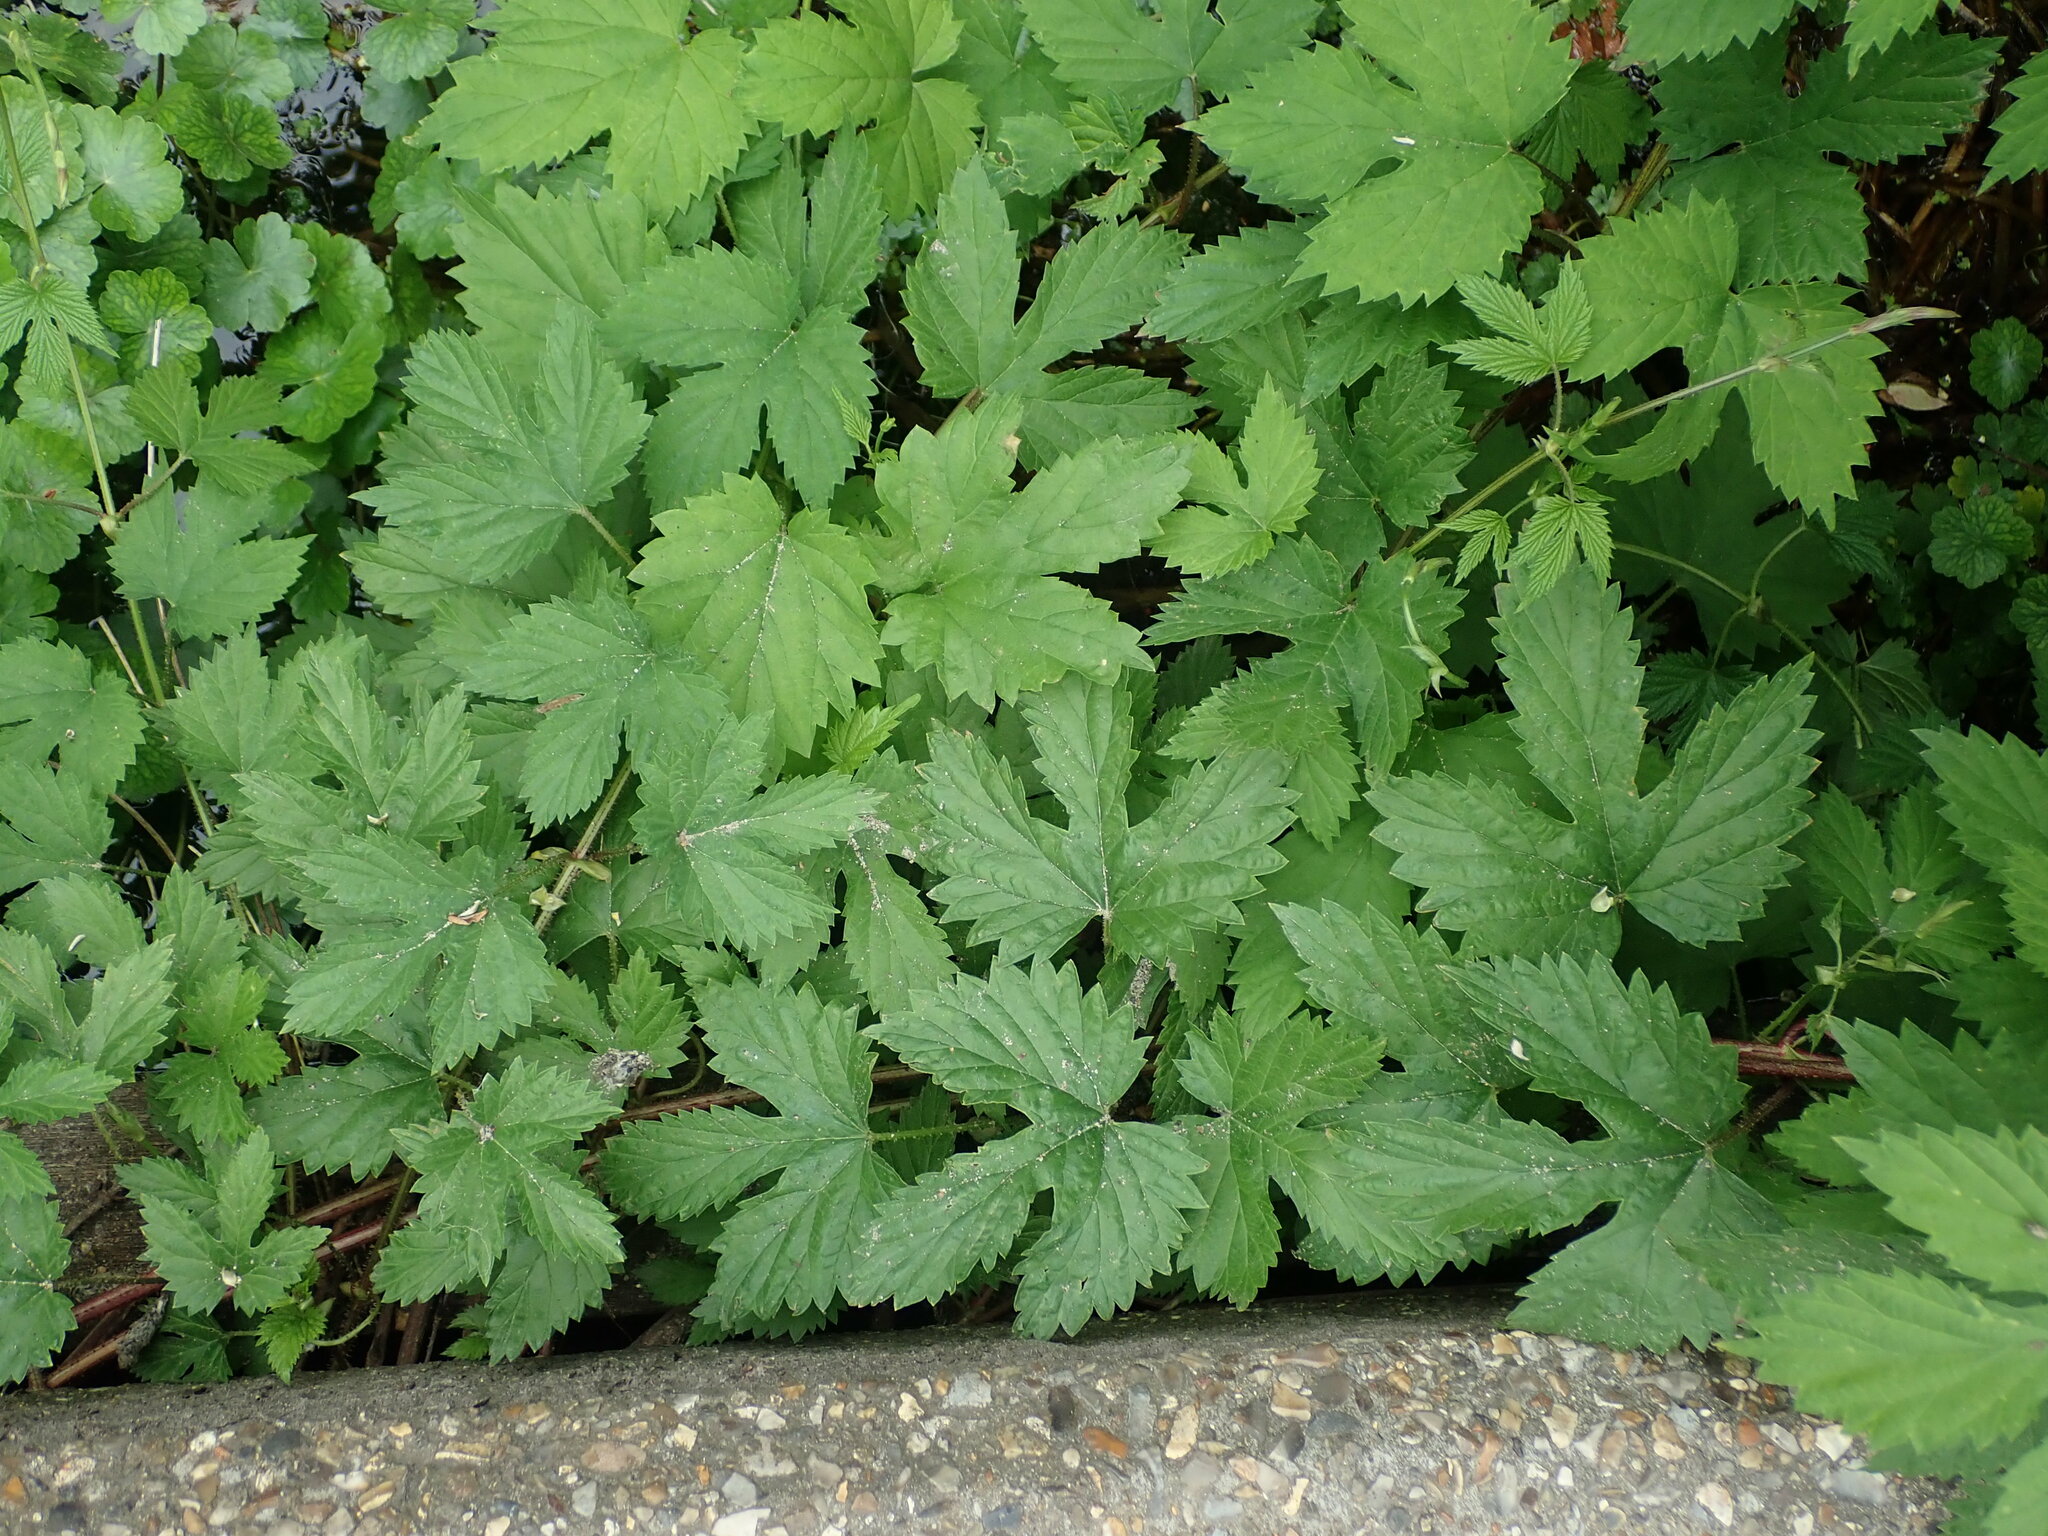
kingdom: Plantae
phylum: Tracheophyta
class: Magnoliopsida
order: Rosales
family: Cannabaceae
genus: Humulus
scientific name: Humulus lupulus
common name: Hop
